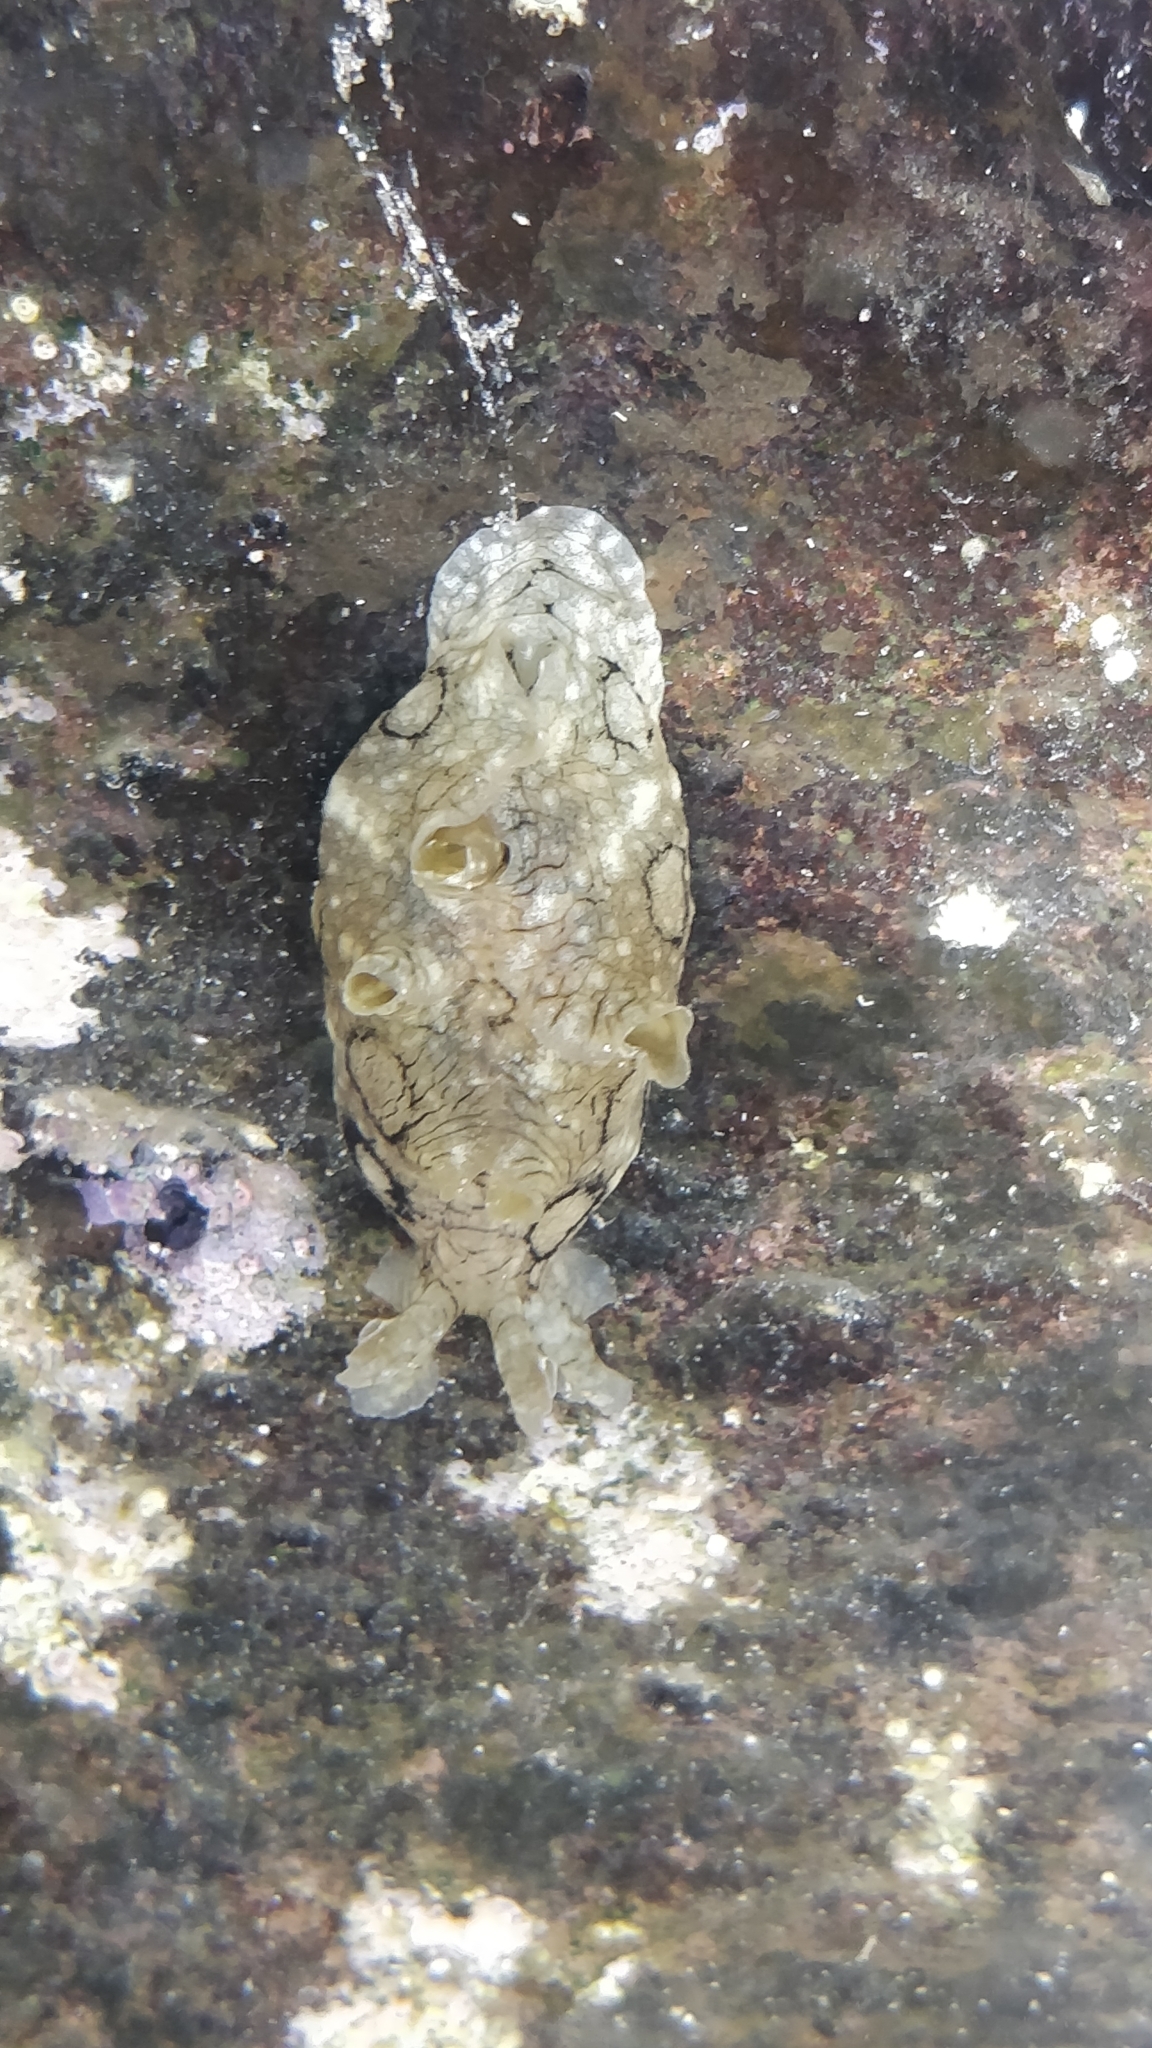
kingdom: Animalia
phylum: Mollusca
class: Gastropoda
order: Aplysiida
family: Aplysiidae
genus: Aplysia
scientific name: Aplysia dactylomela
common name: Large-spotted sea hare
